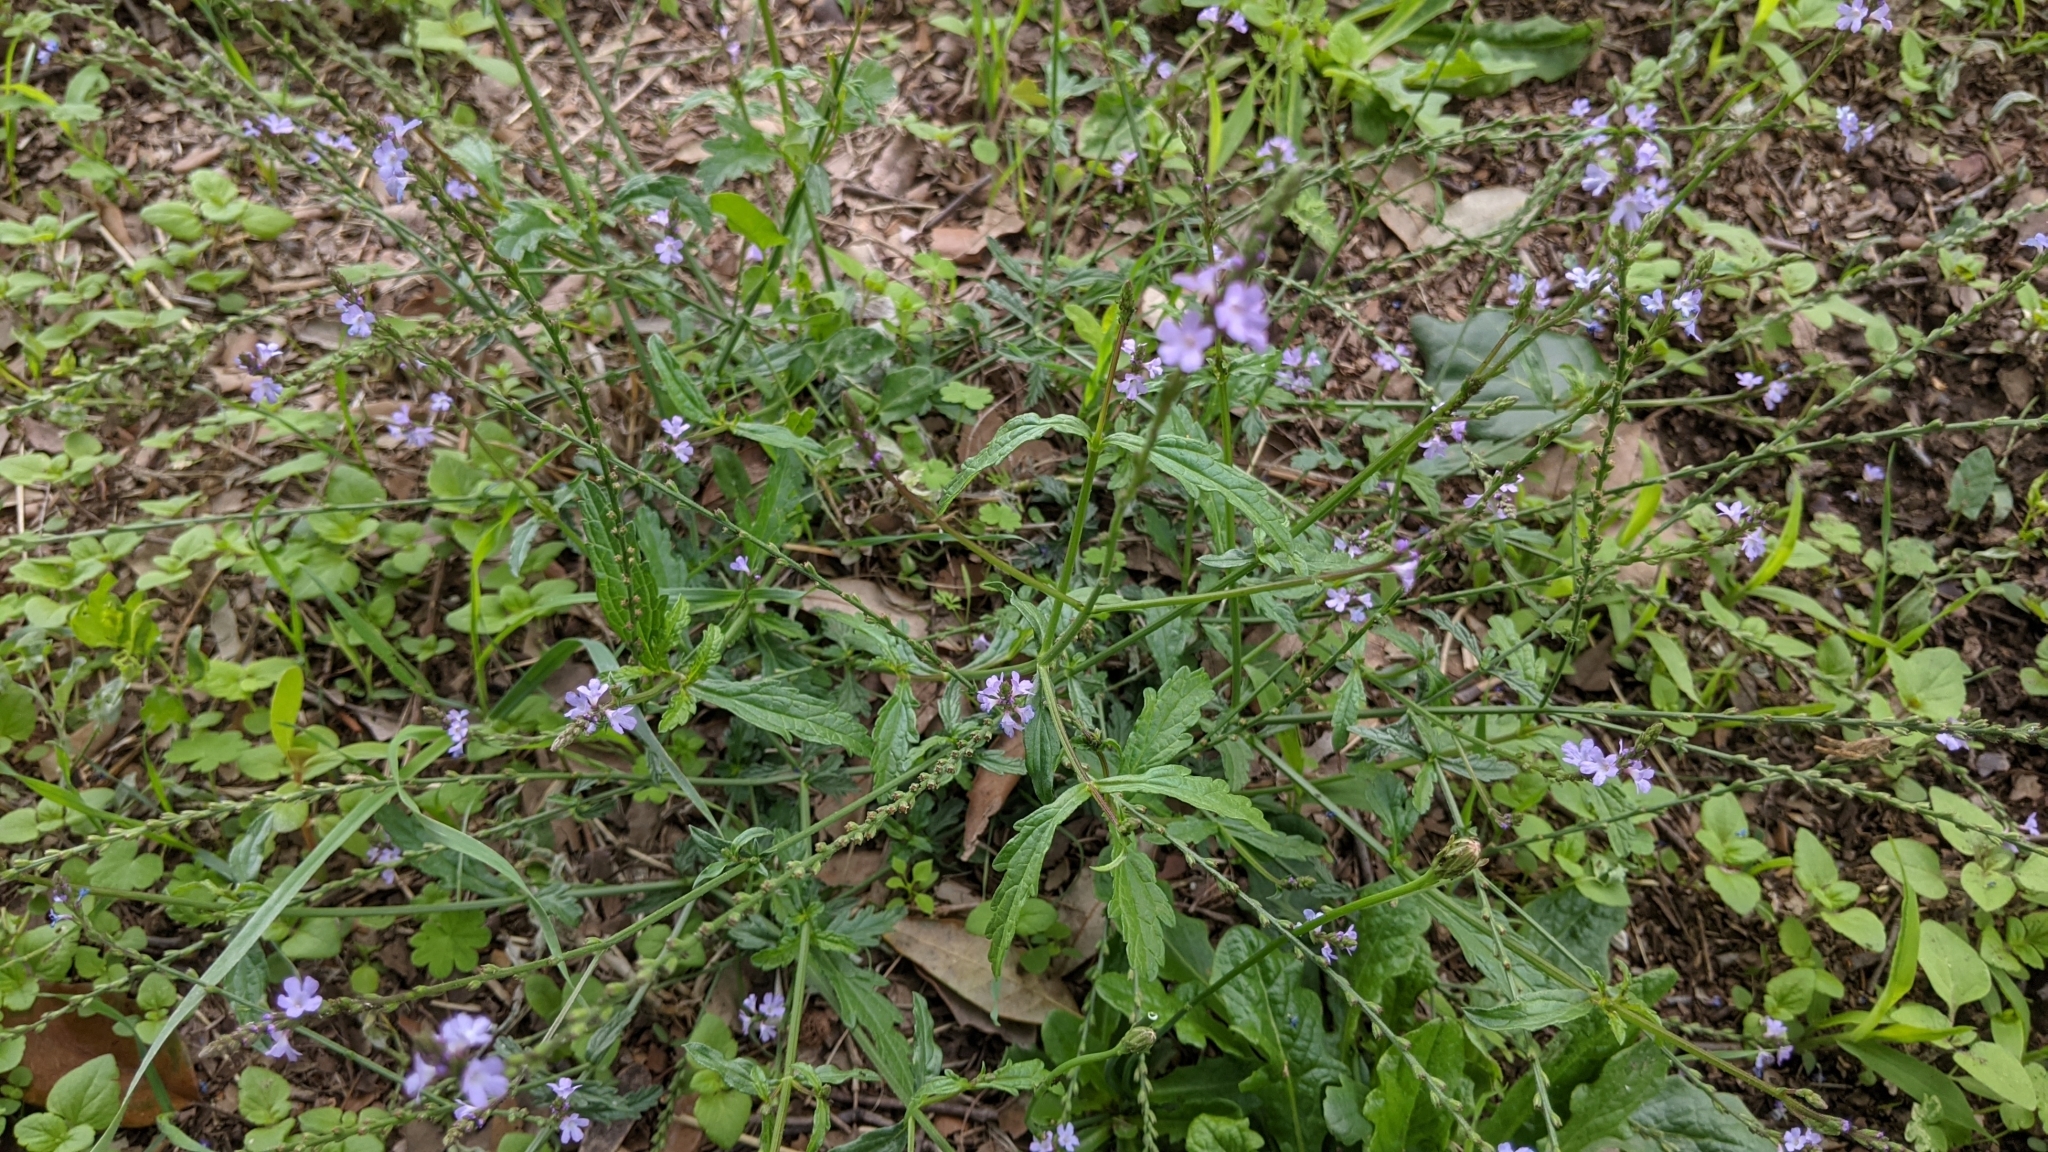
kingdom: Plantae
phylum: Tracheophyta
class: Magnoliopsida
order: Lamiales
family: Verbenaceae
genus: Verbena
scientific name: Verbena officinalis
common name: Vervain
